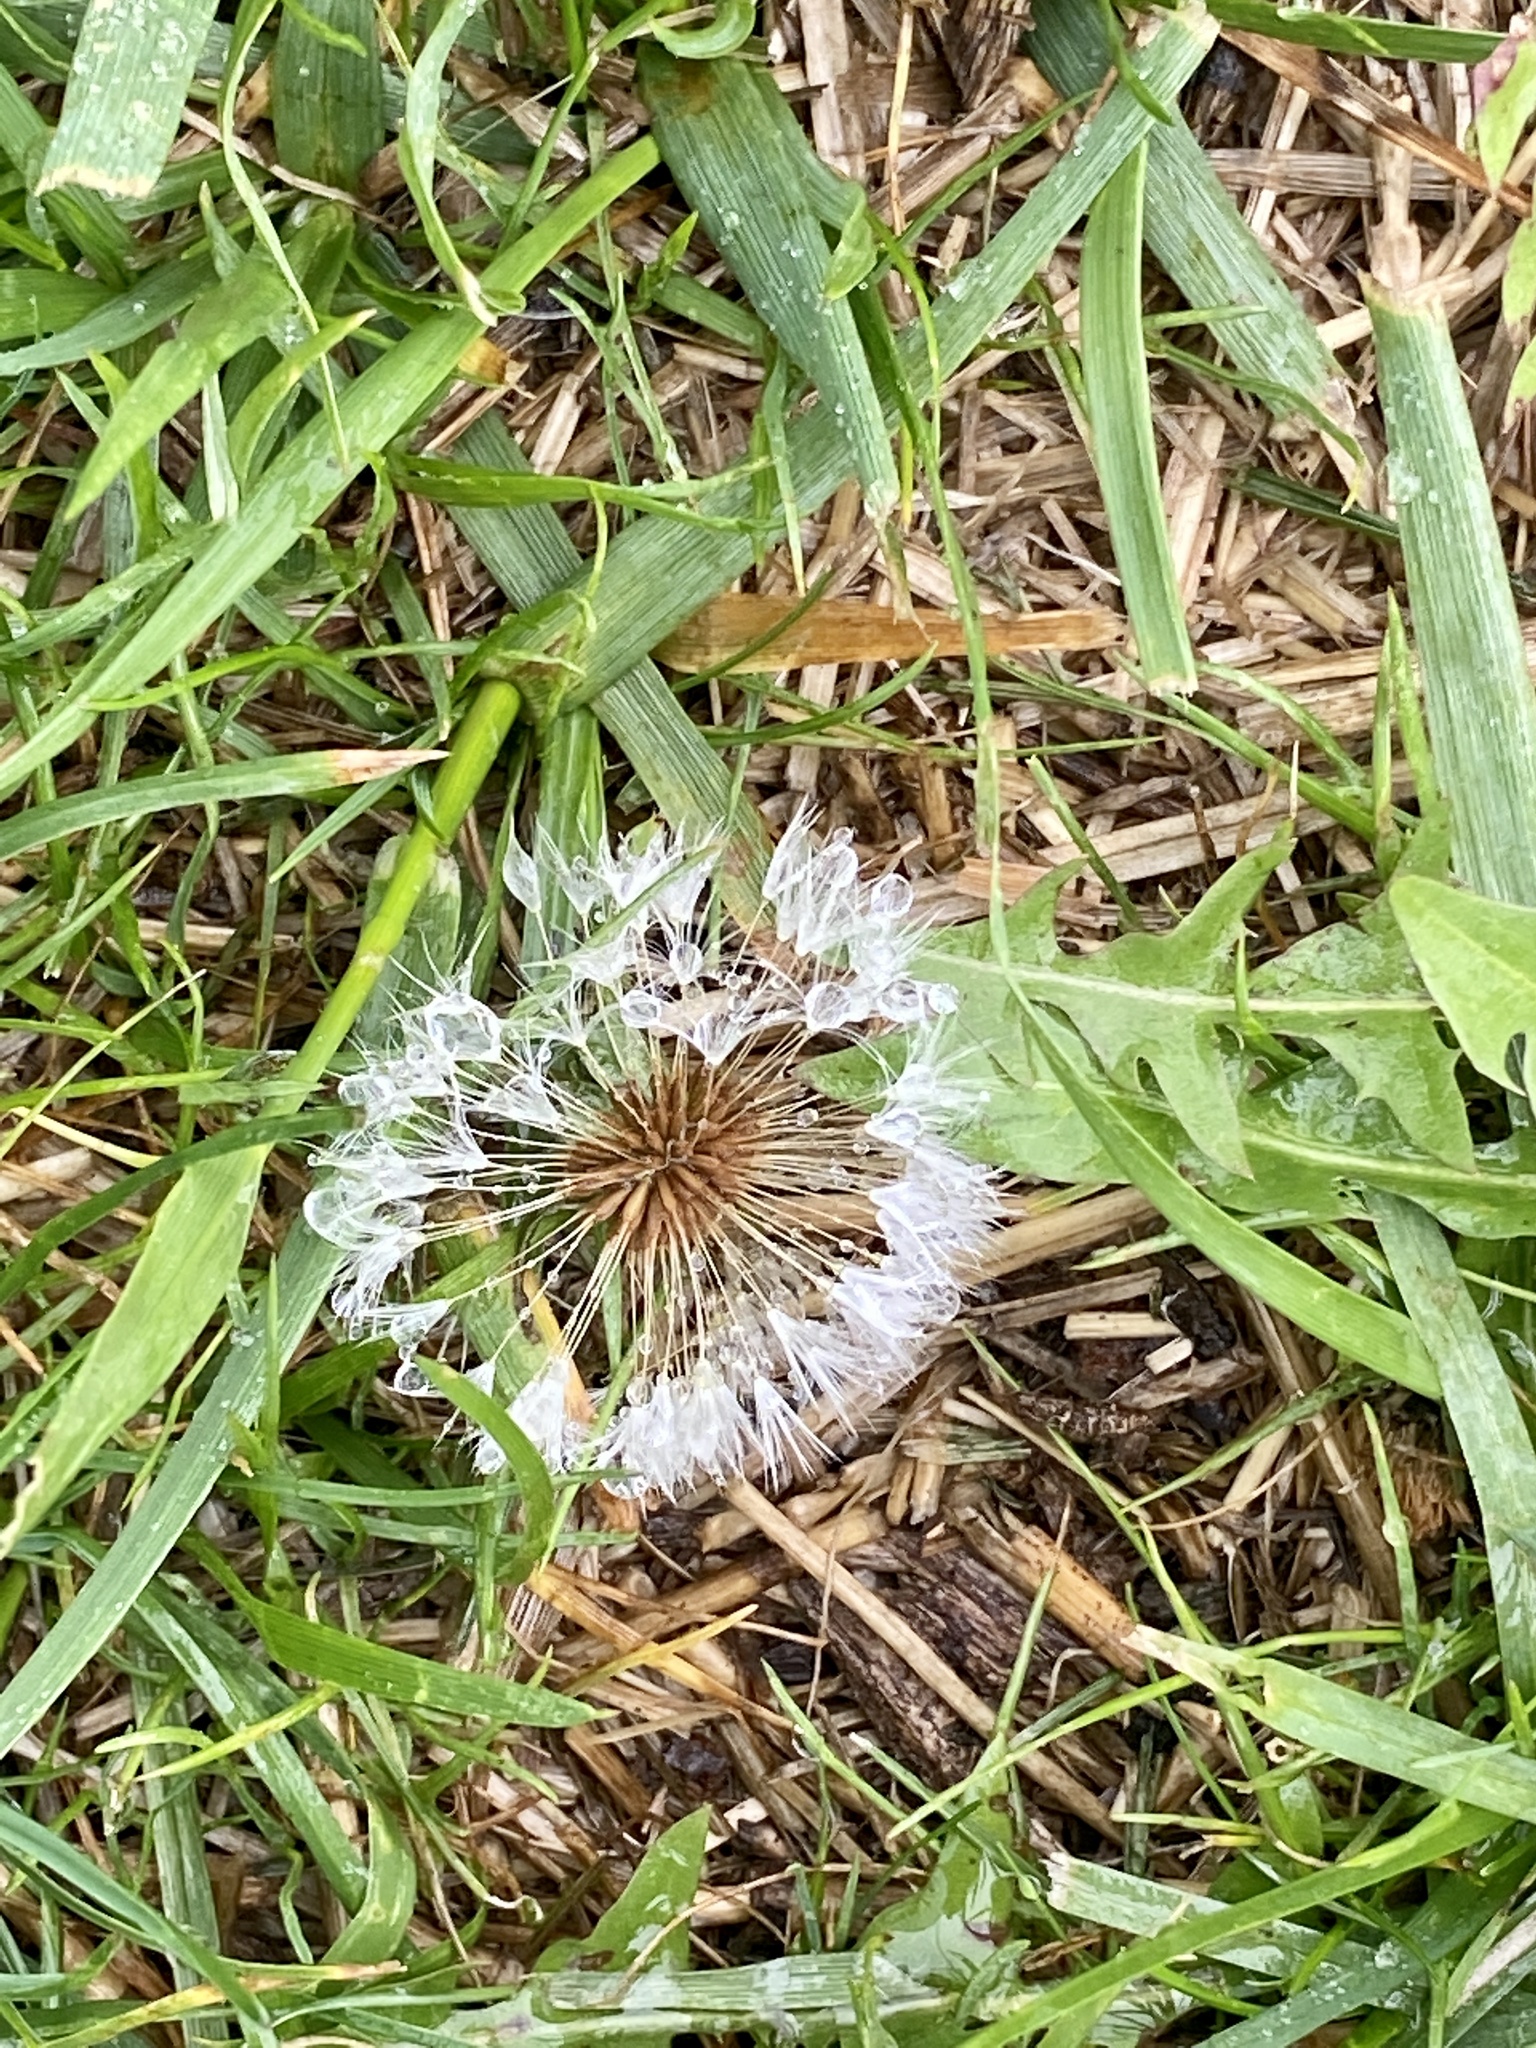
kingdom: Plantae
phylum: Tracheophyta
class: Magnoliopsida
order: Asterales
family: Asteraceae
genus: Taraxacum
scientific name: Taraxacum officinale
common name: Common dandelion
